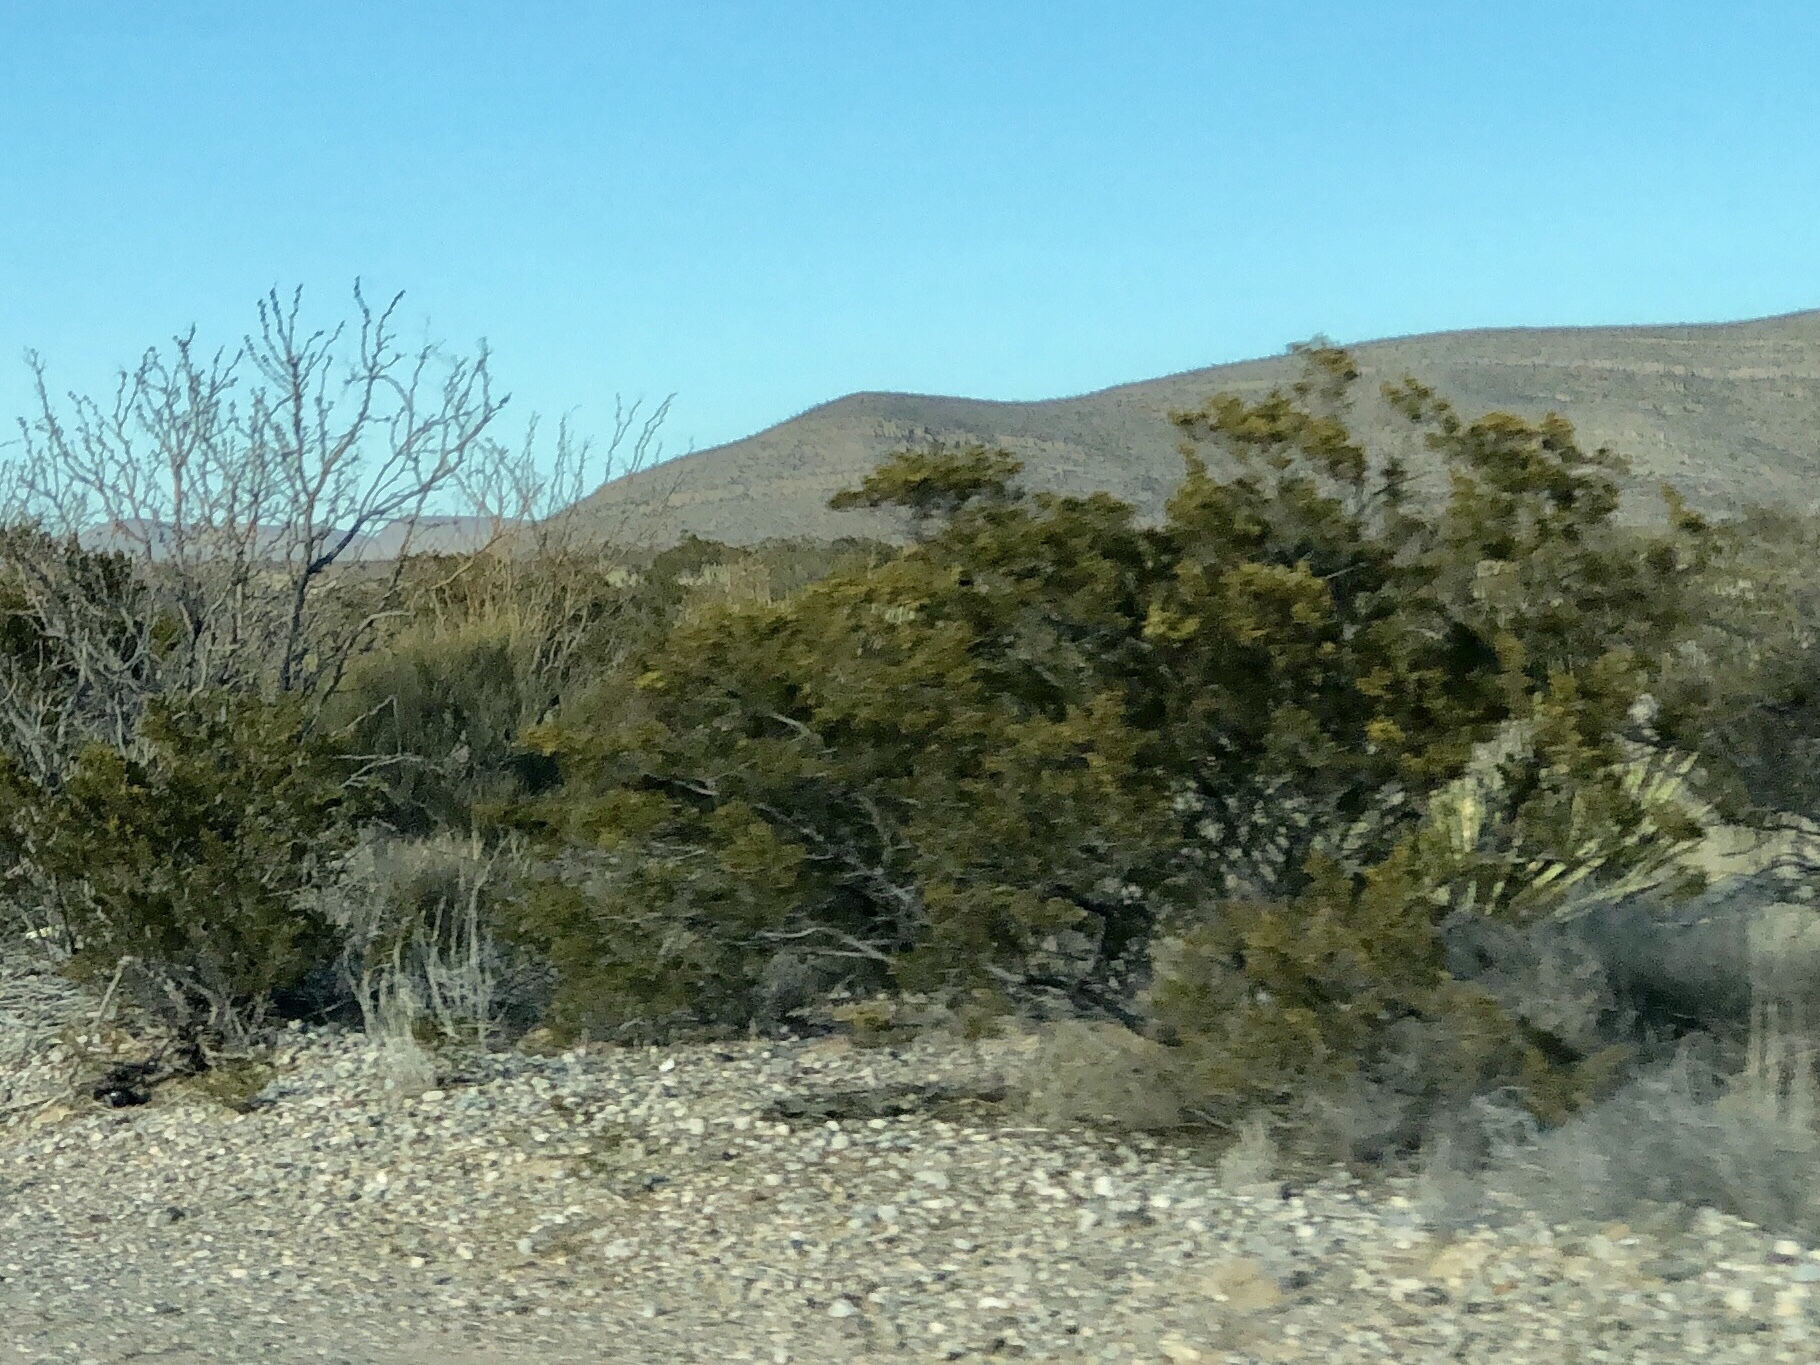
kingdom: Plantae
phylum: Tracheophyta
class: Magnoliopsida
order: Zygophyllales
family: Zygophyllaceae
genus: Larrea
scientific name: Larrea tridentata
